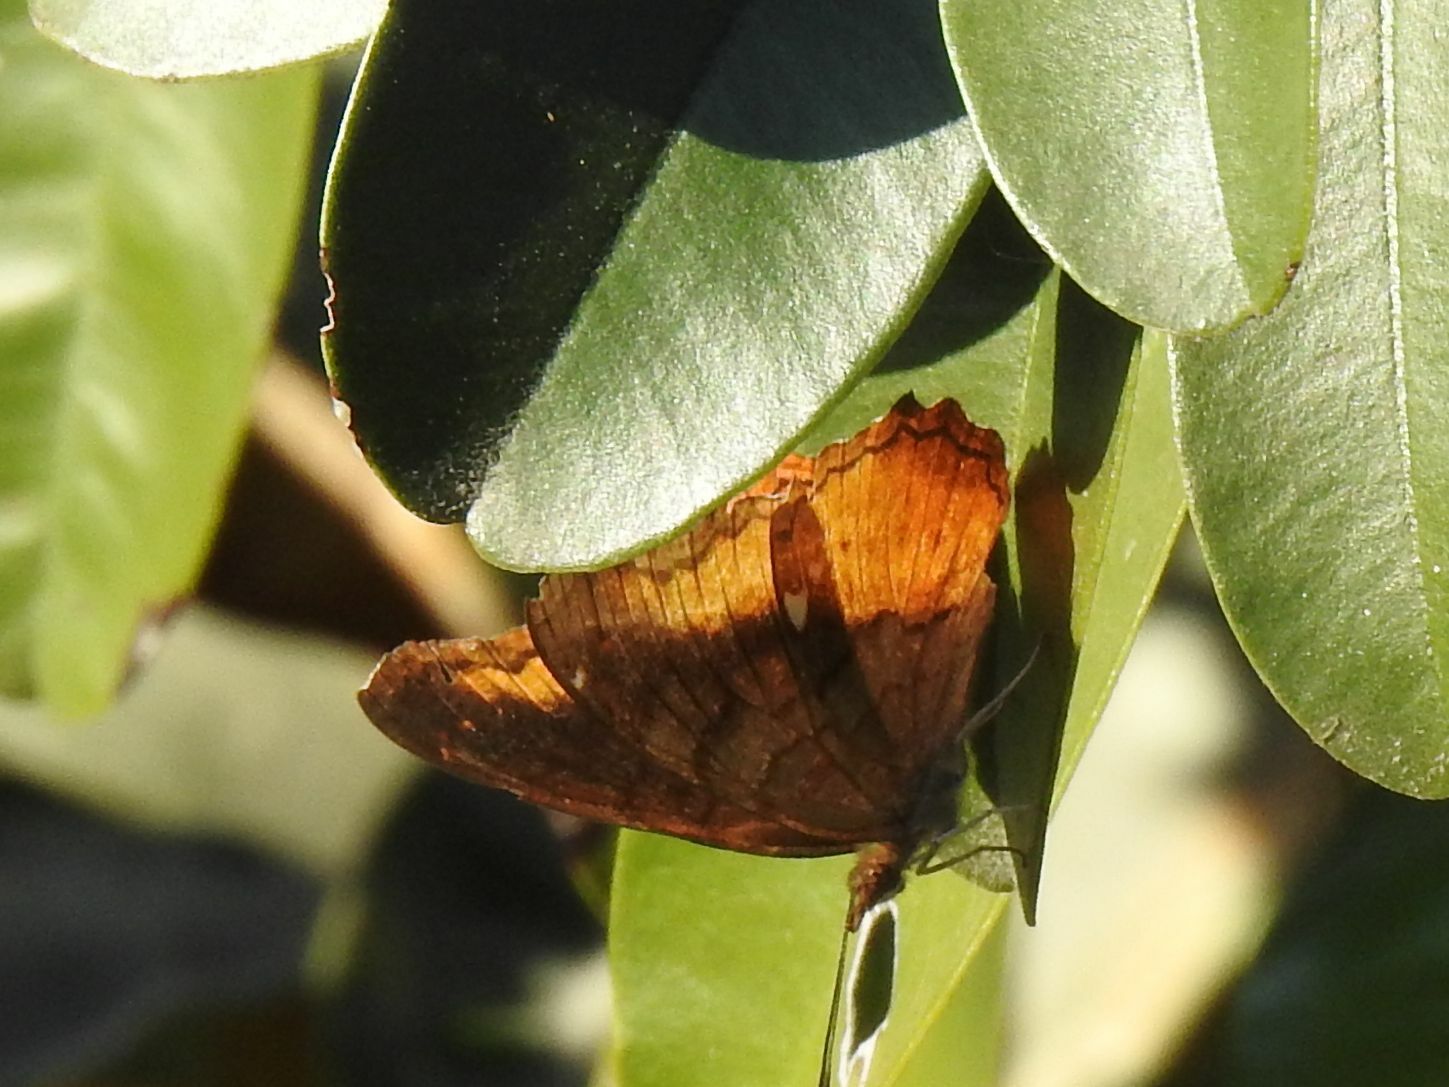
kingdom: Animalia
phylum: Arthropoda
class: Insecta
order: Lepidoptera
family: Nymphalidae
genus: Eurytela
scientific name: Eurytela dryope
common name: Golden piper
